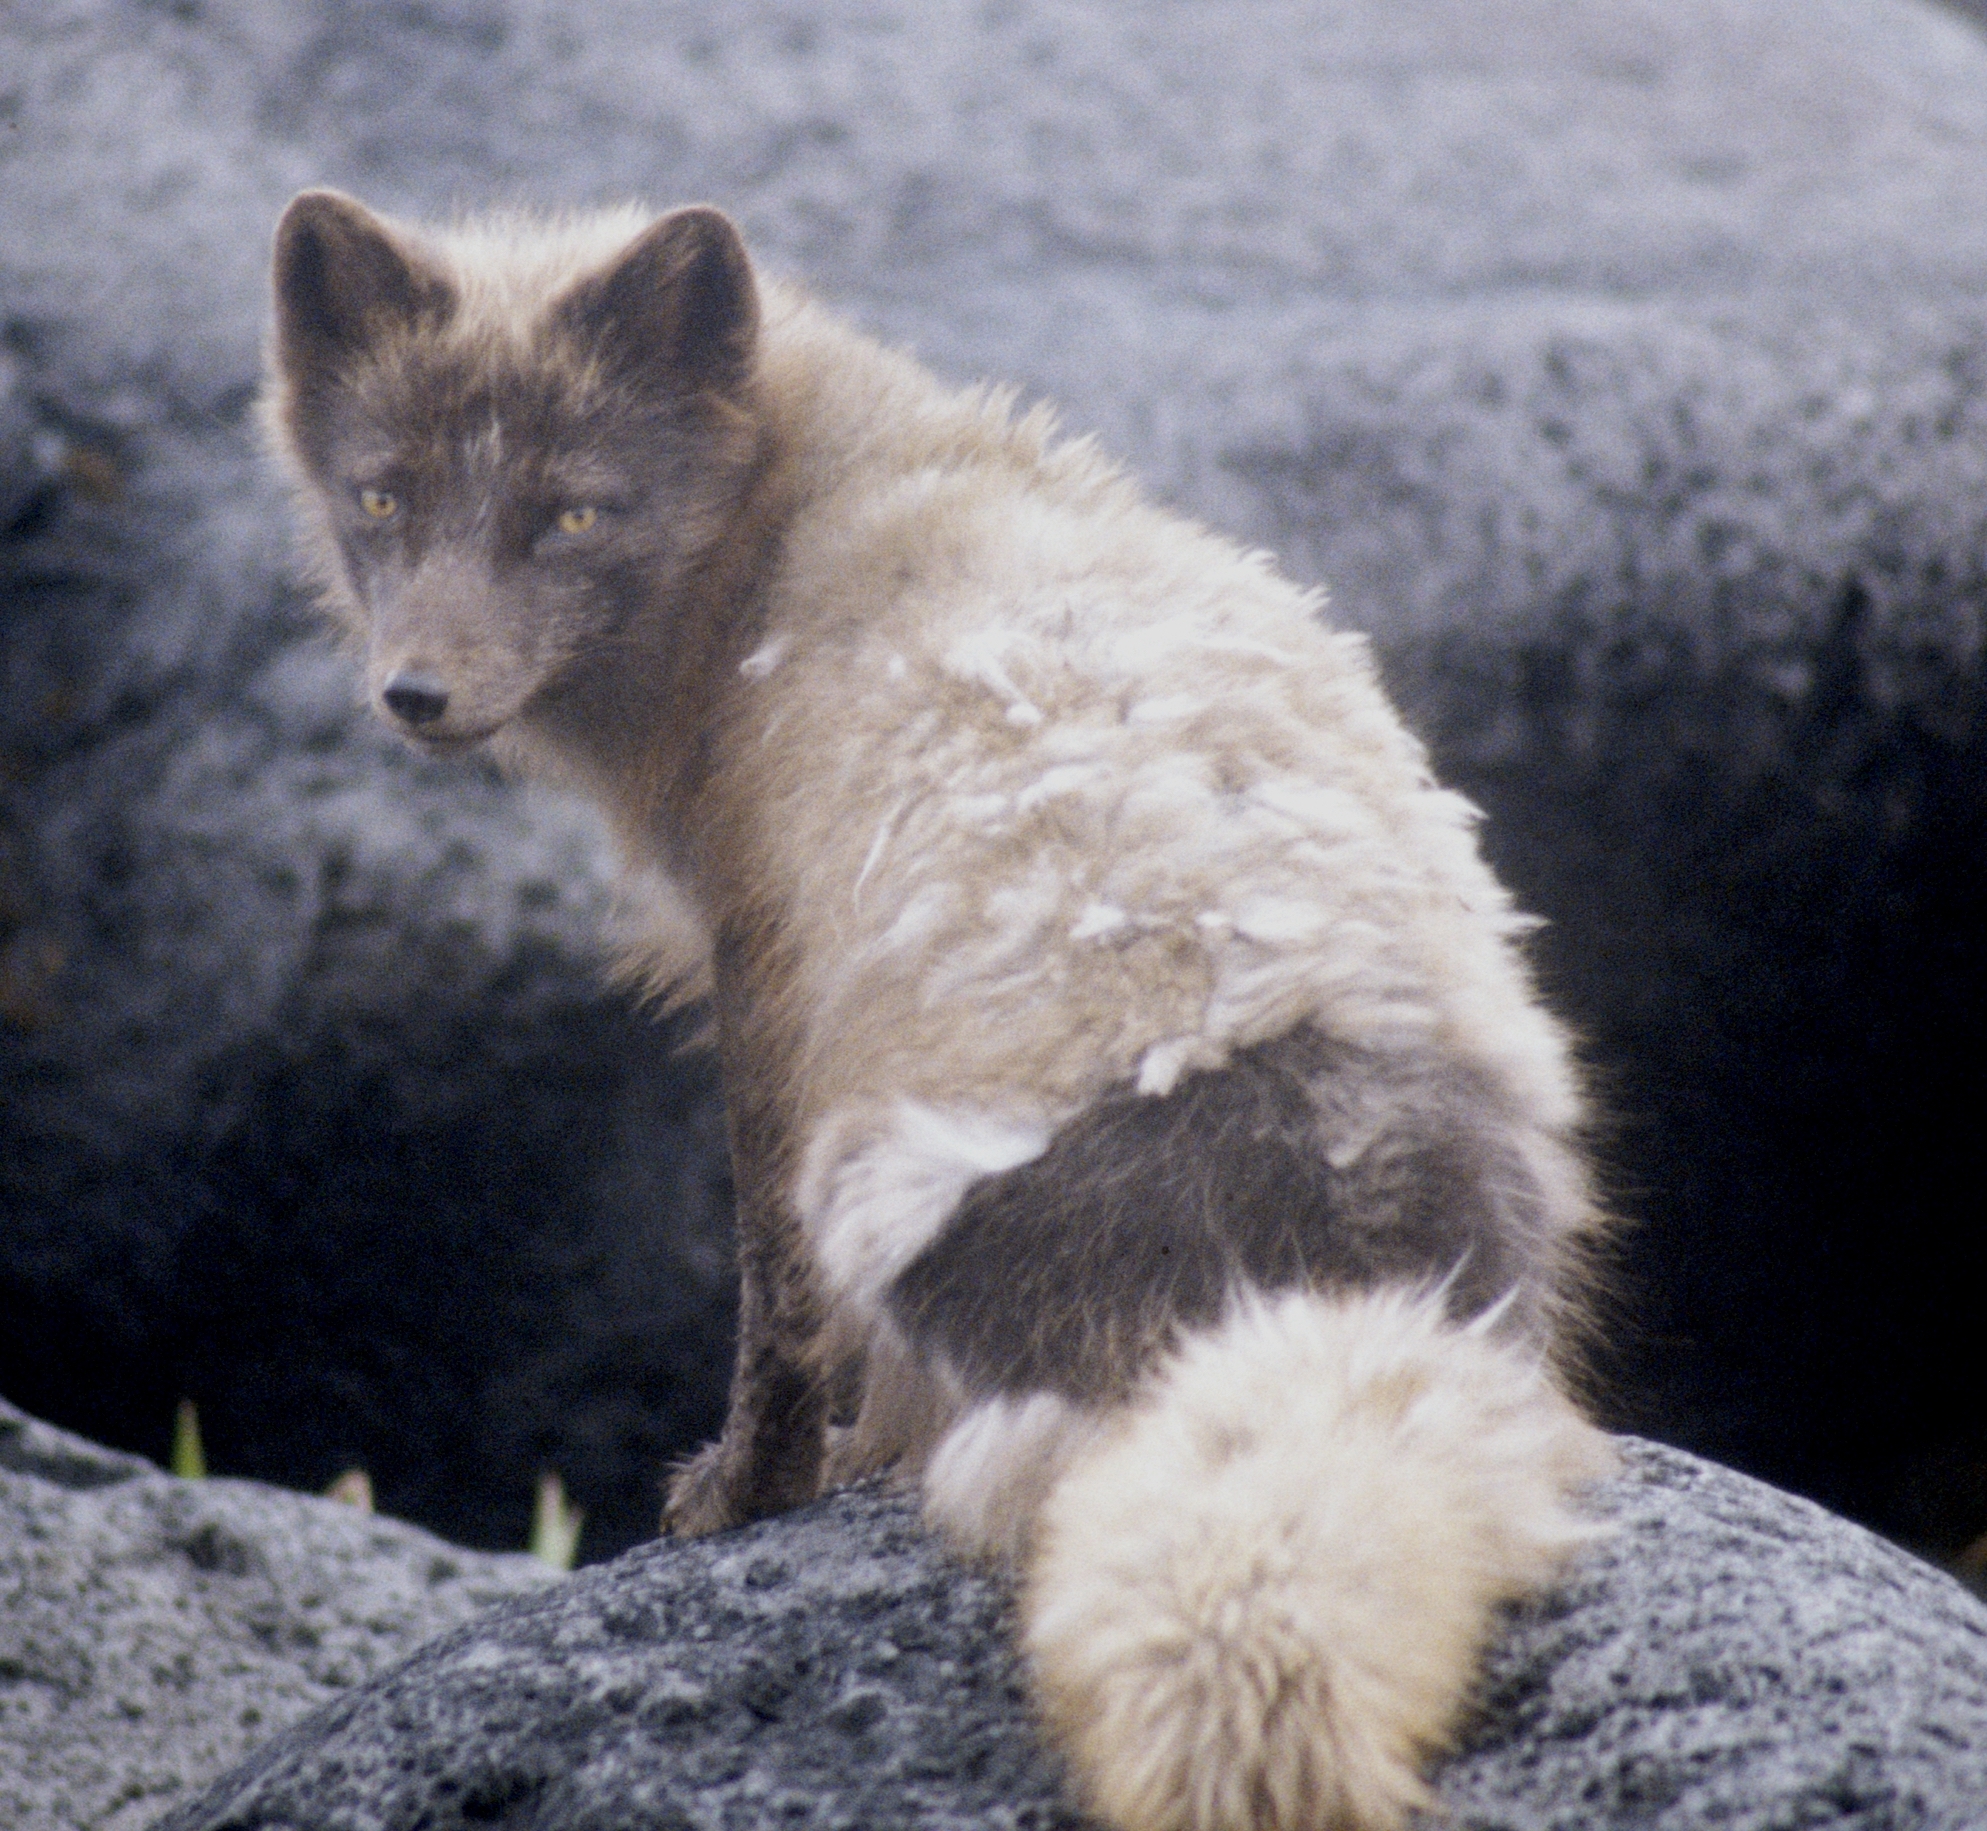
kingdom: Animalia
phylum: Chordata
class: Mammalia
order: Carnivora
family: Canidae
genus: Vulpes
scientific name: Vulpes lagopus
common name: Arctic fox
